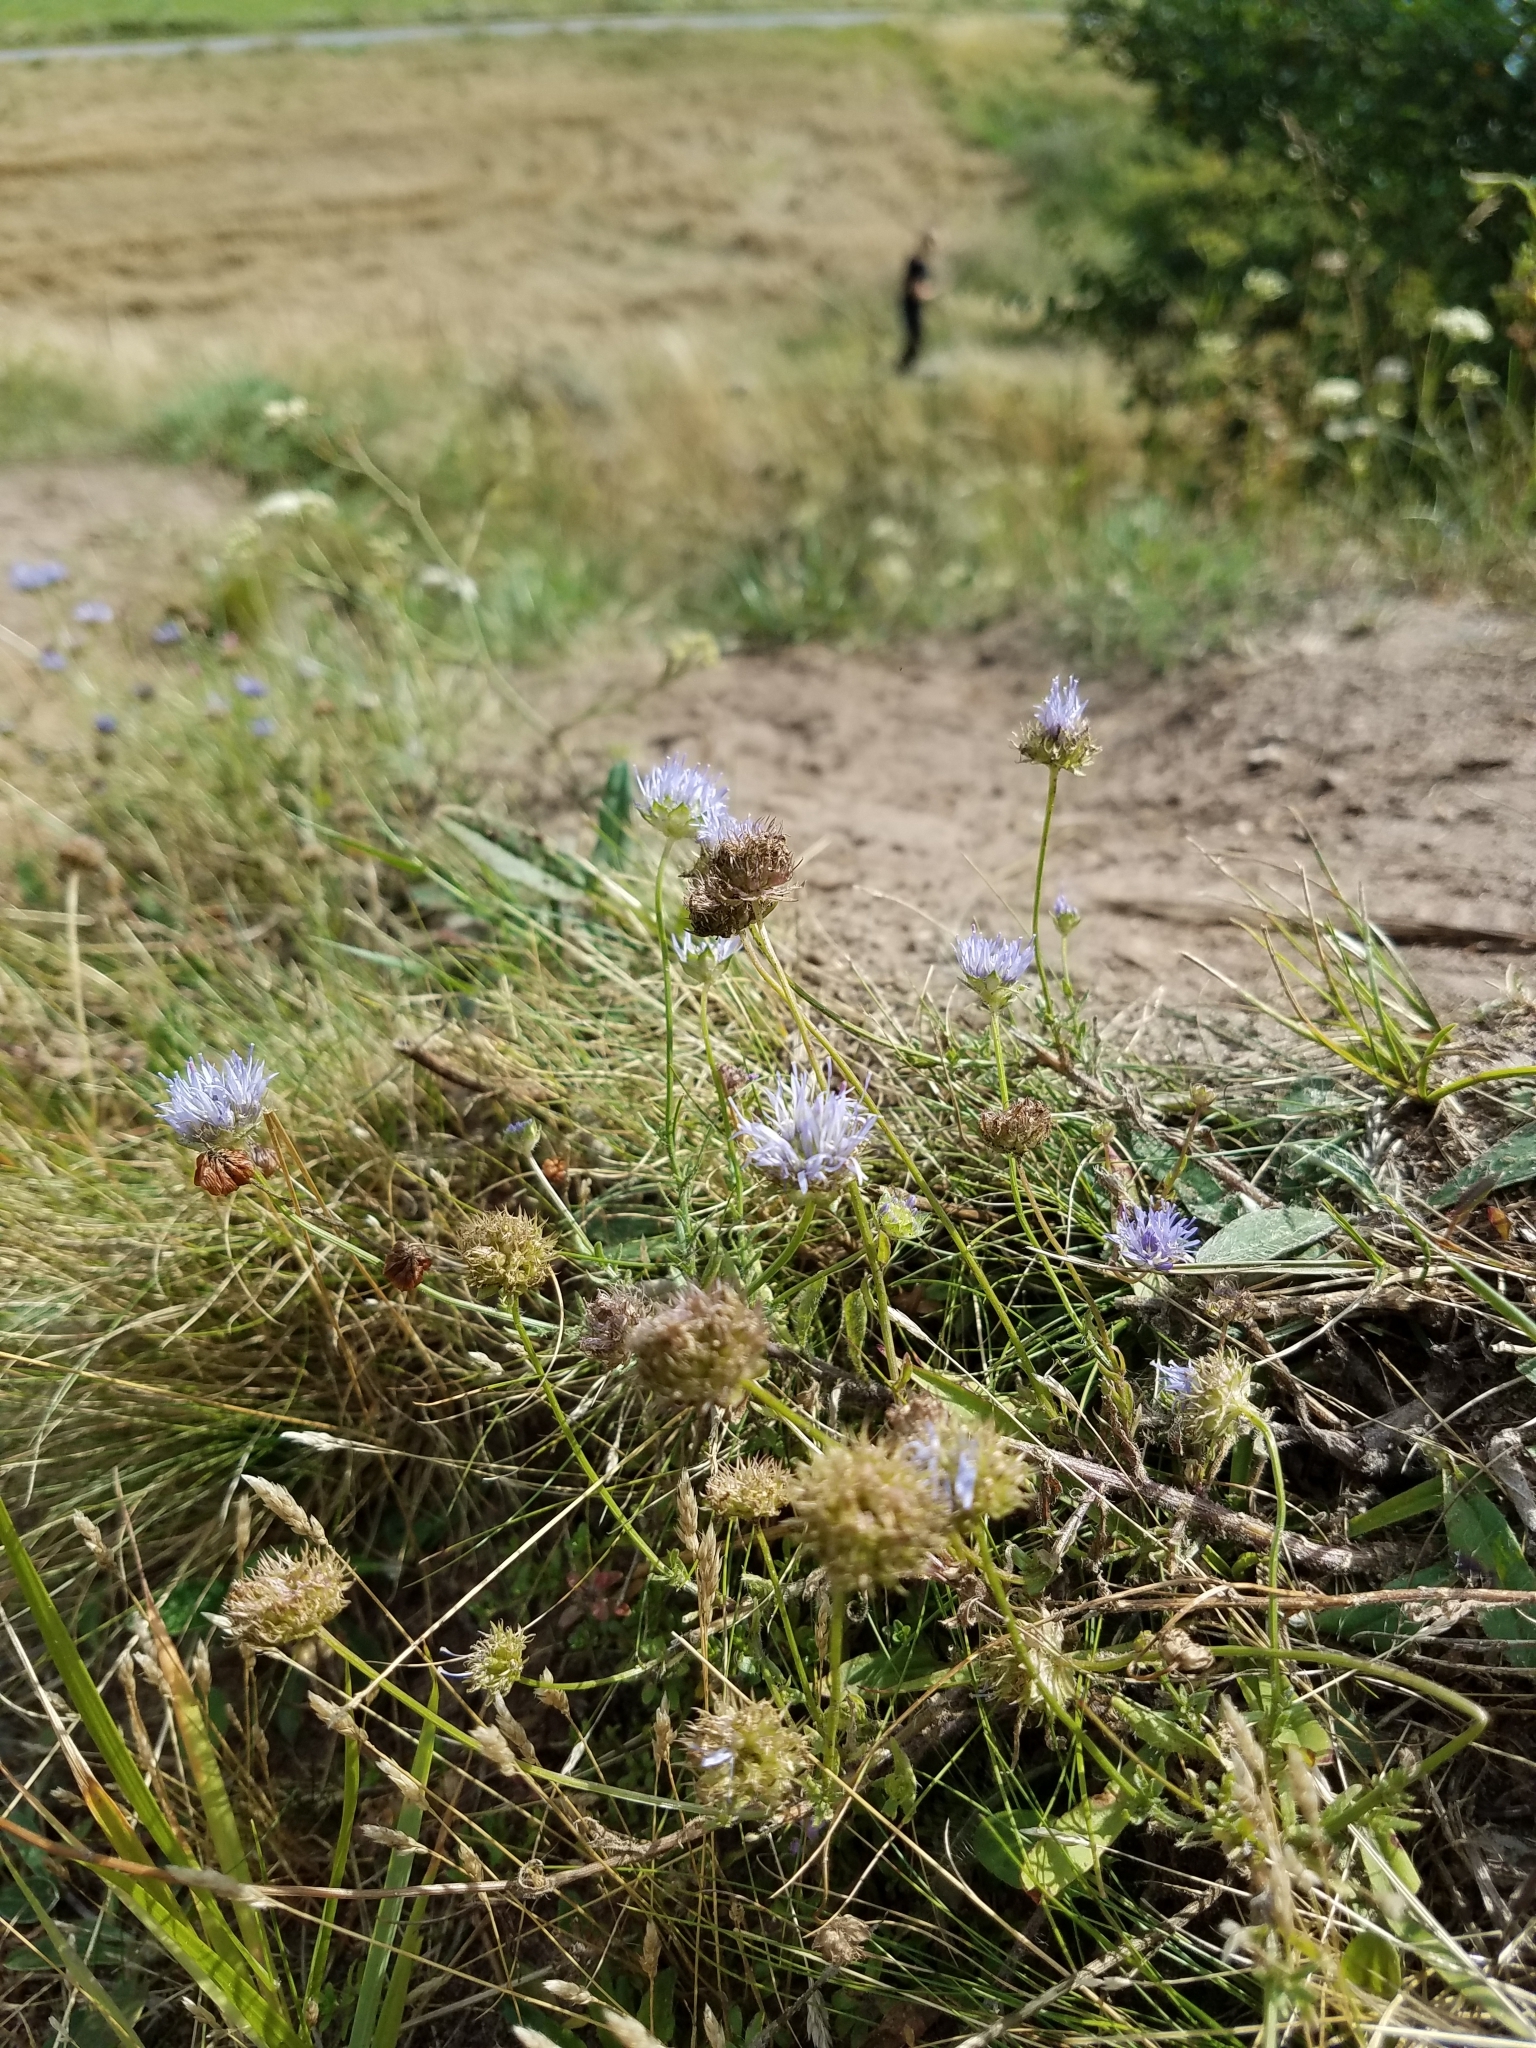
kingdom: Plantae
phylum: Tracheophyta
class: Magnoliopsida
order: Asterales
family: Campanulaceae
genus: Jasione
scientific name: Jasione montana
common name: Sheep's-bit
